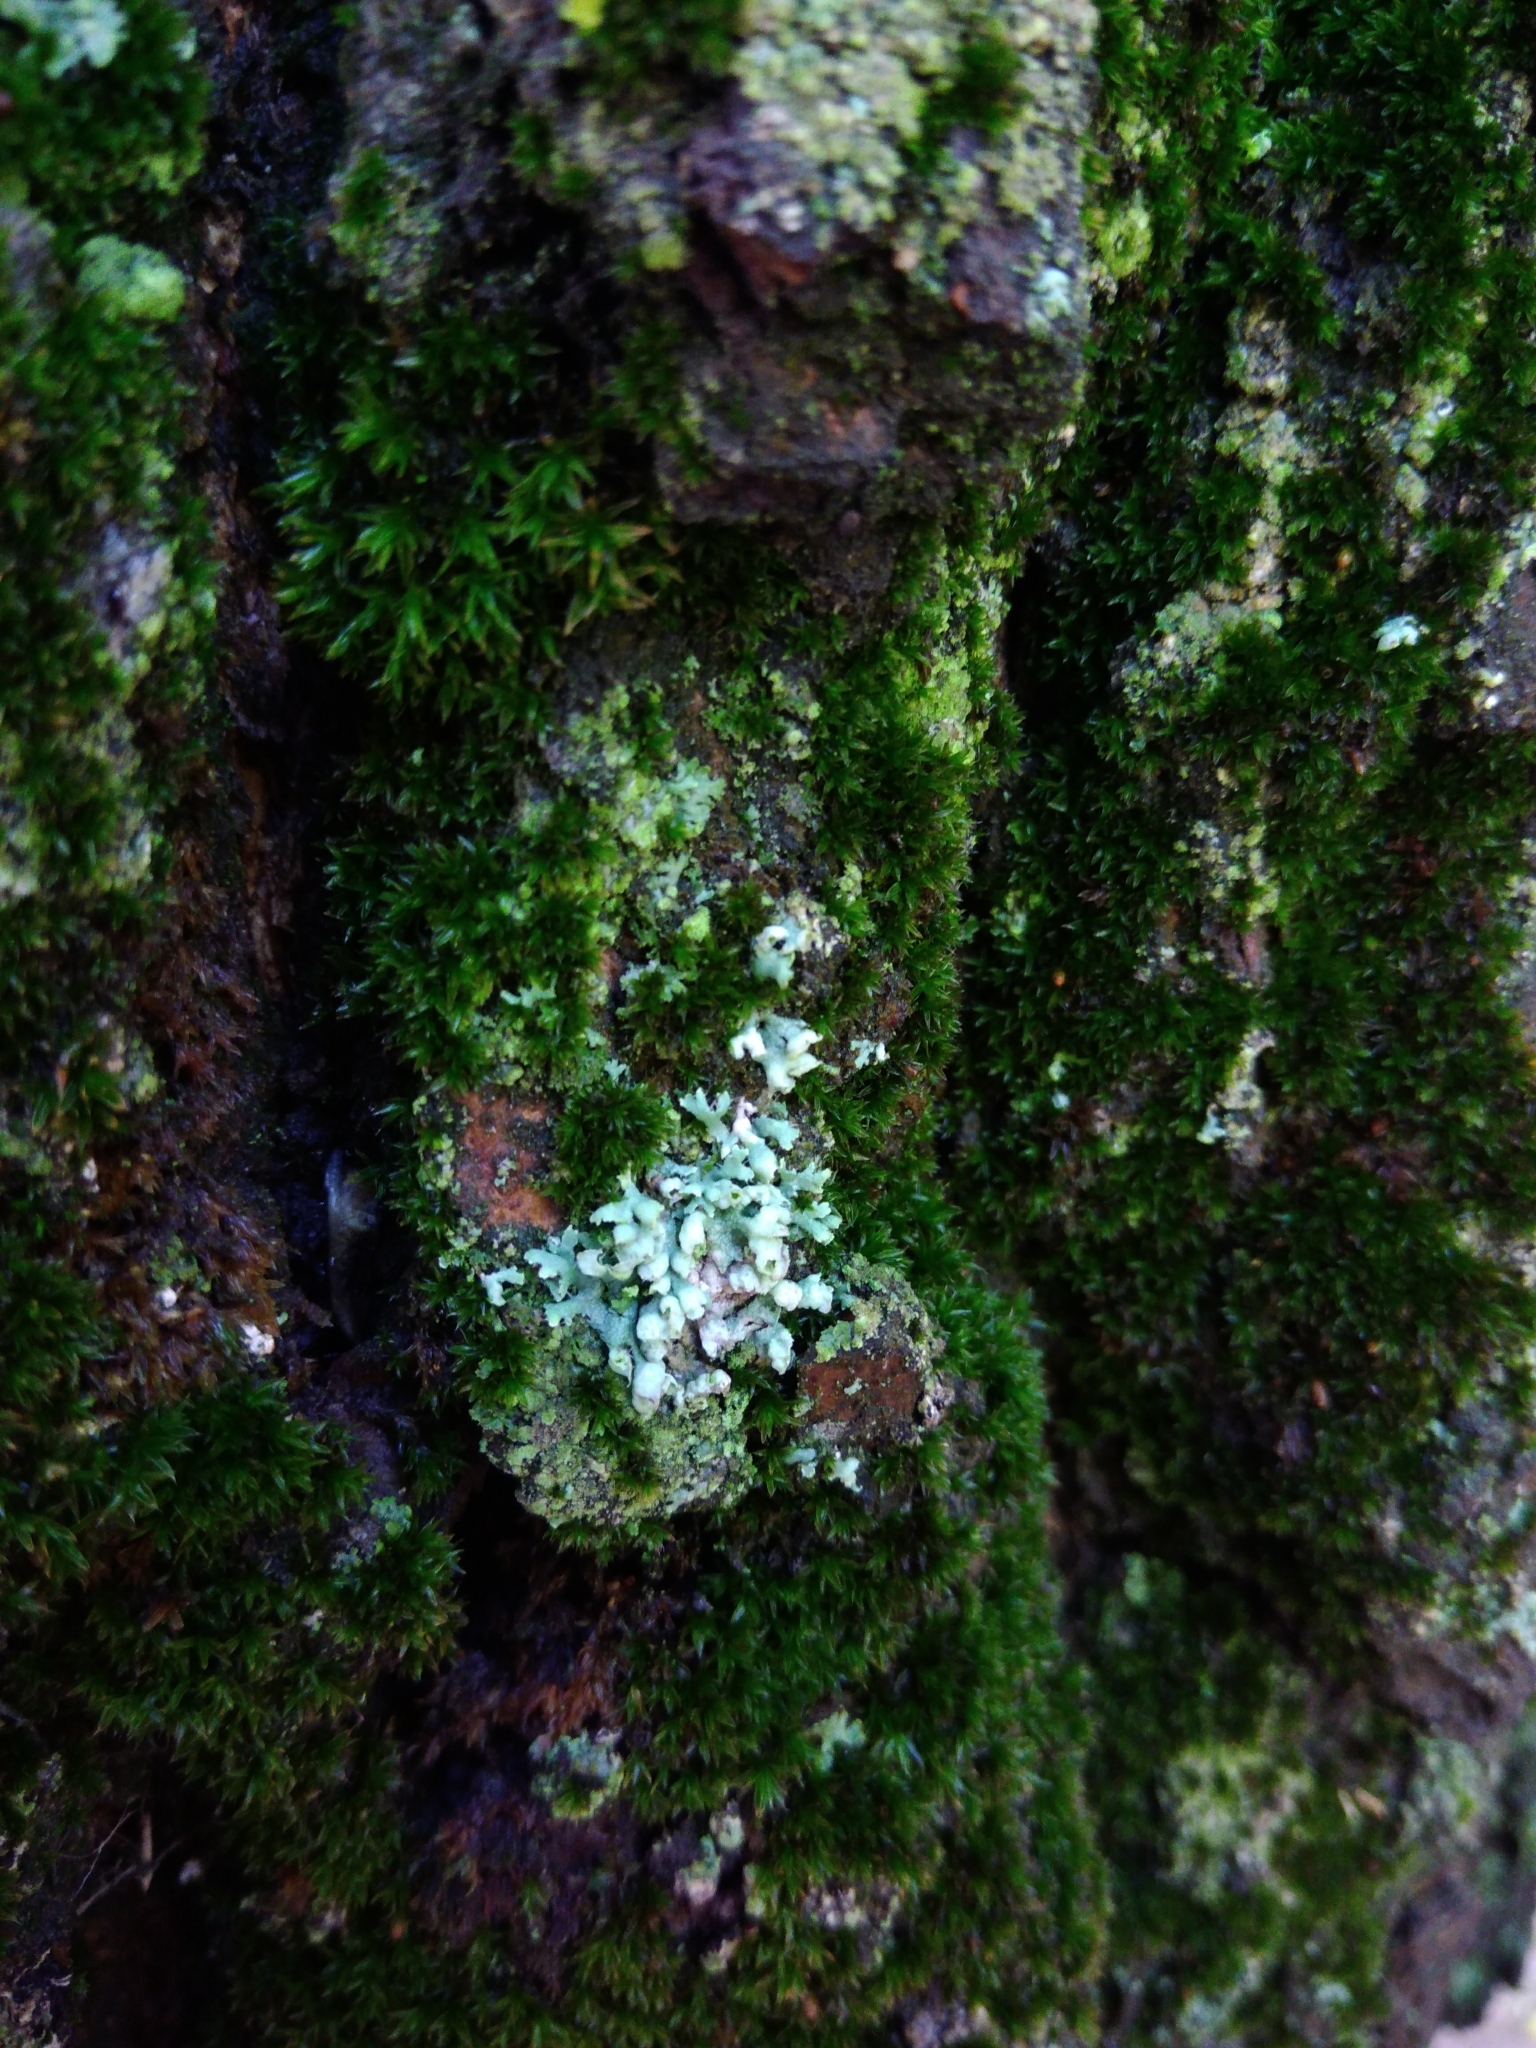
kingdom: Fungi
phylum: Ascomycota
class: Lecanoromycetes
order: Caliciales
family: Physciaceae
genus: Physcia
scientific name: Physcia adscendens
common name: Hooded rosette lichen
